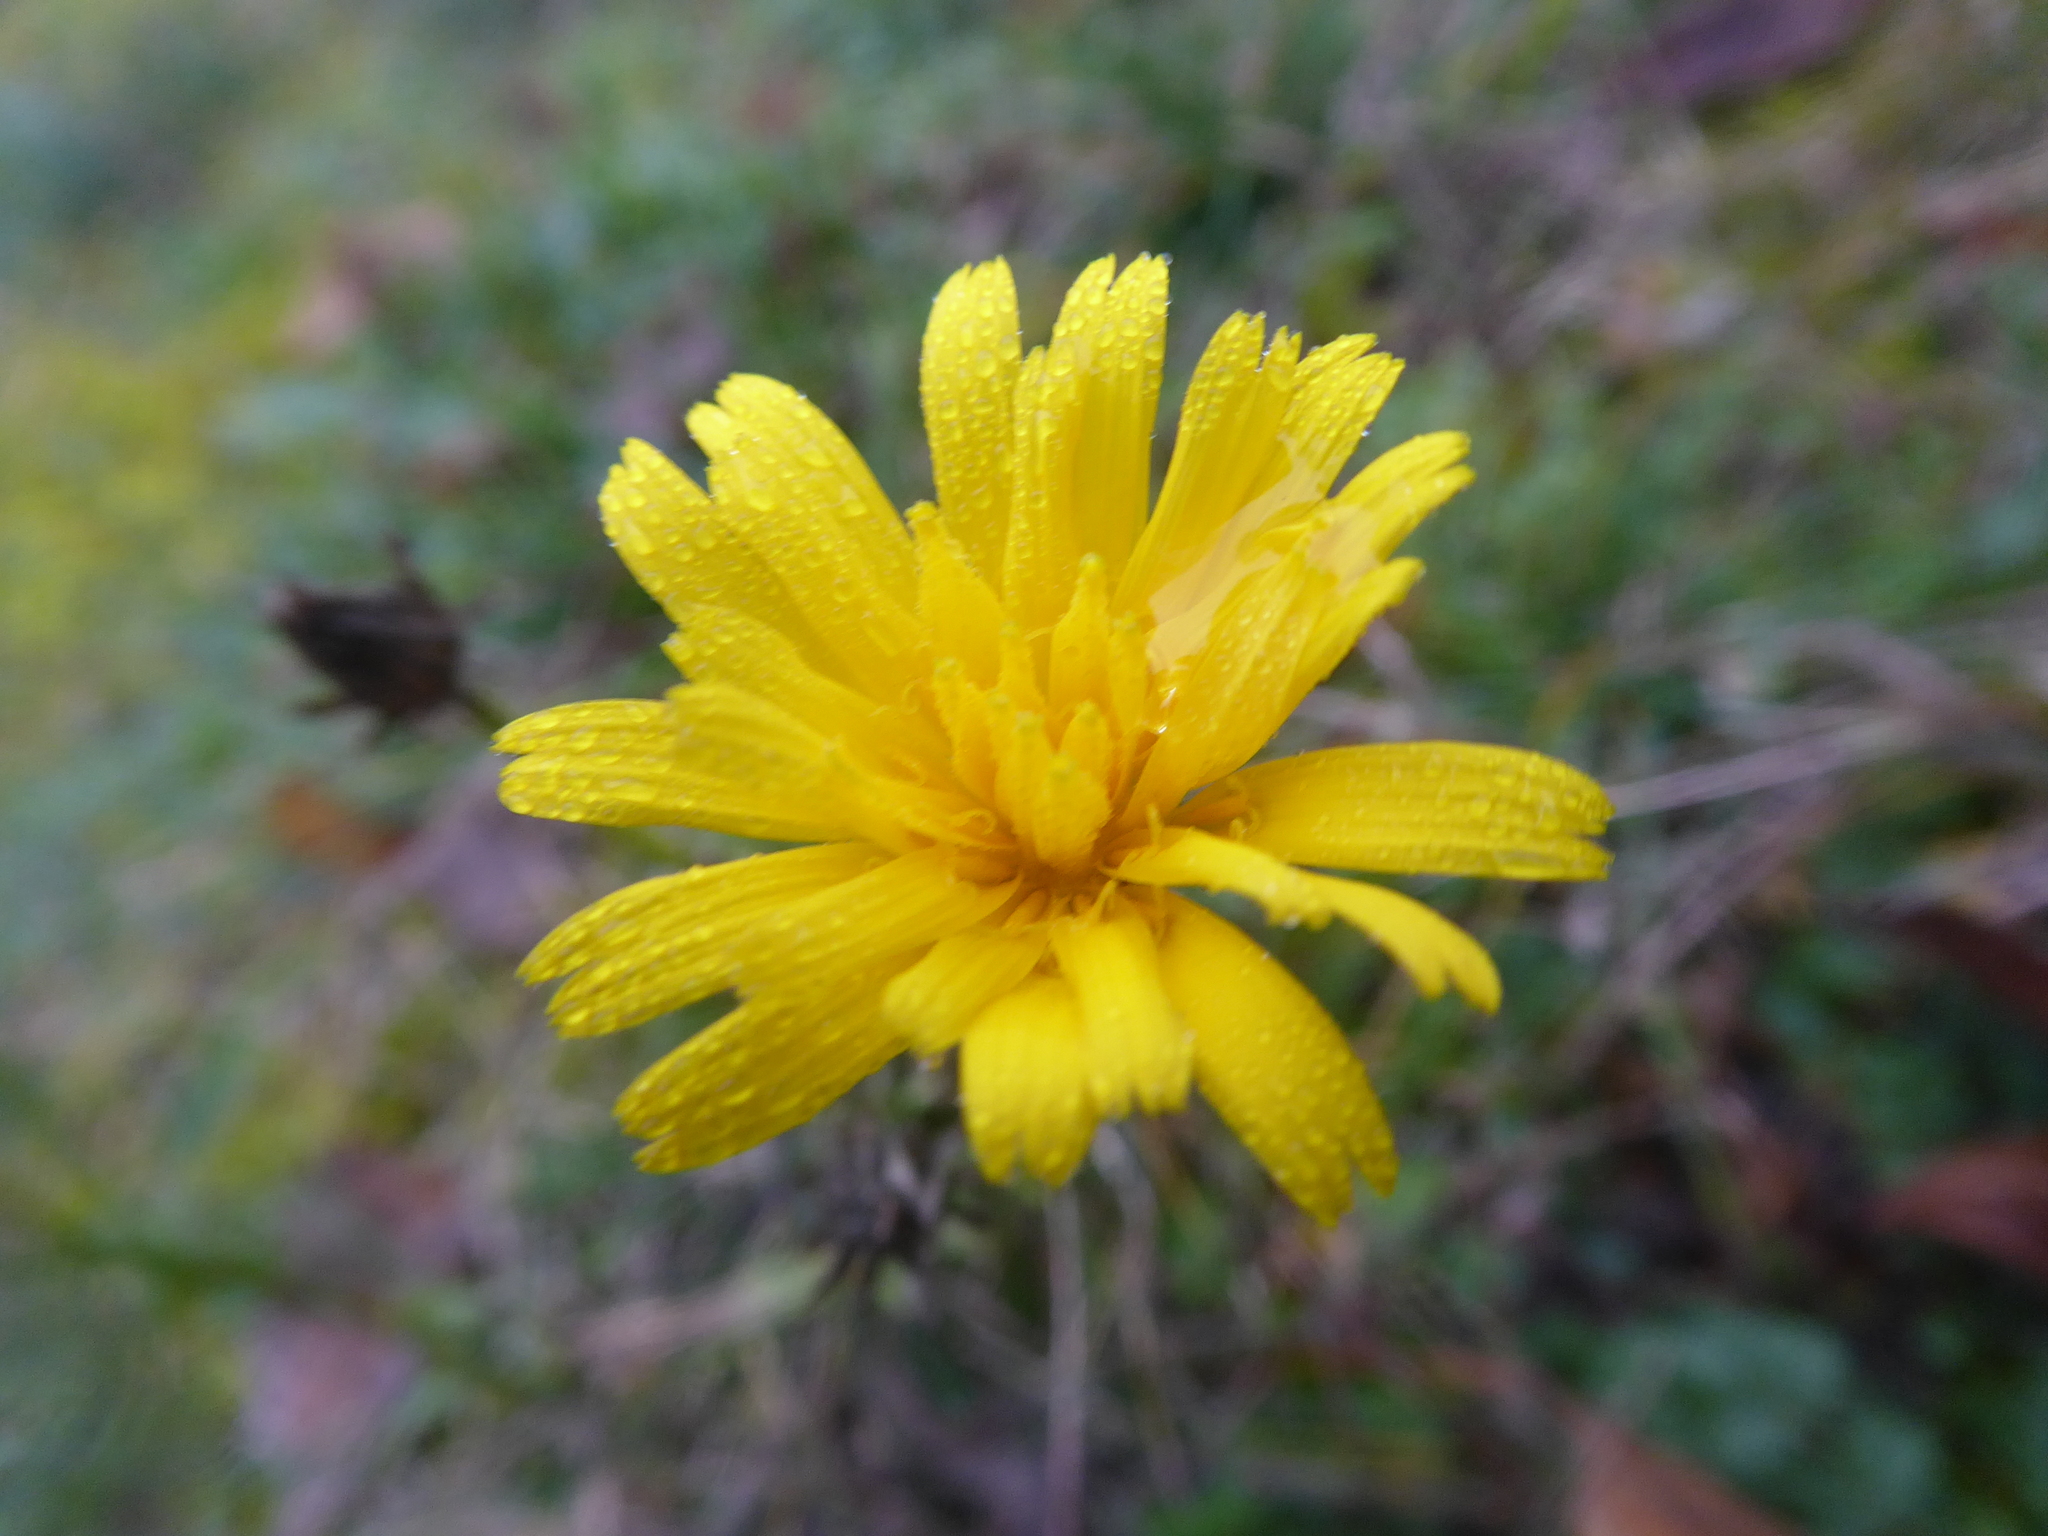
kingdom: Plantae
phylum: Tracheophyta
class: Magnoliopsida
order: Asterales
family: Asteraceae
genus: Picris
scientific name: Picris hieracioides
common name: Hawkweed oxtongue
